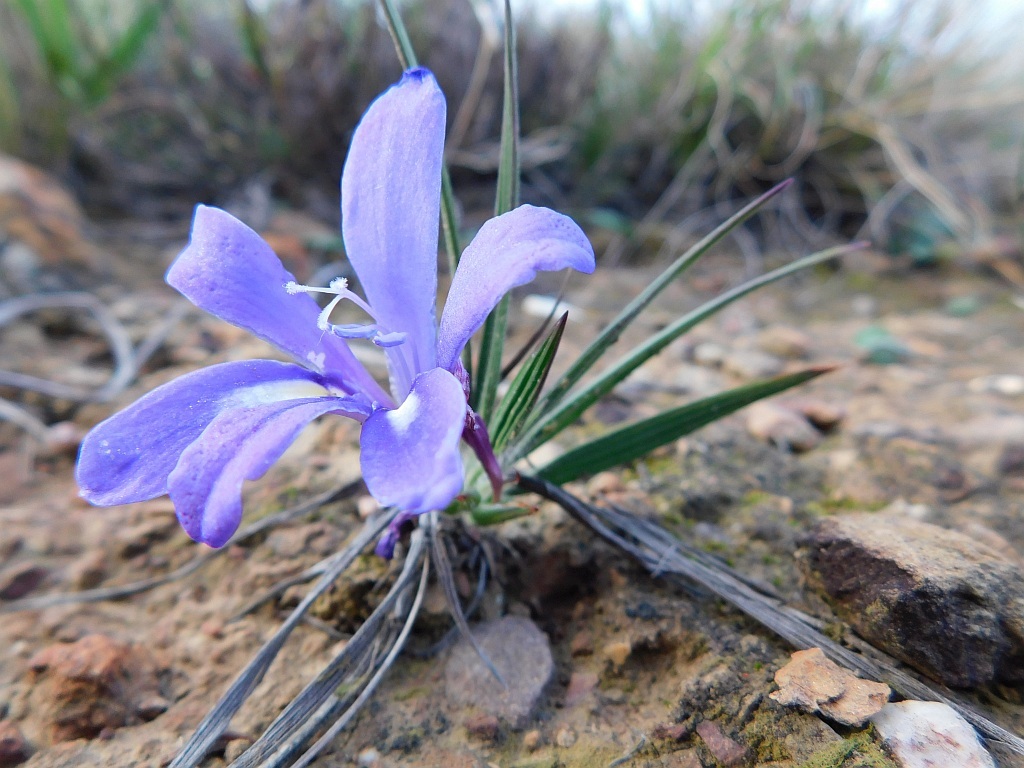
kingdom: Plantae
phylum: Tracheophyta
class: Liliopsida
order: Asparagales
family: Iridaceae
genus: Babiana
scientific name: Babiana ambigua
